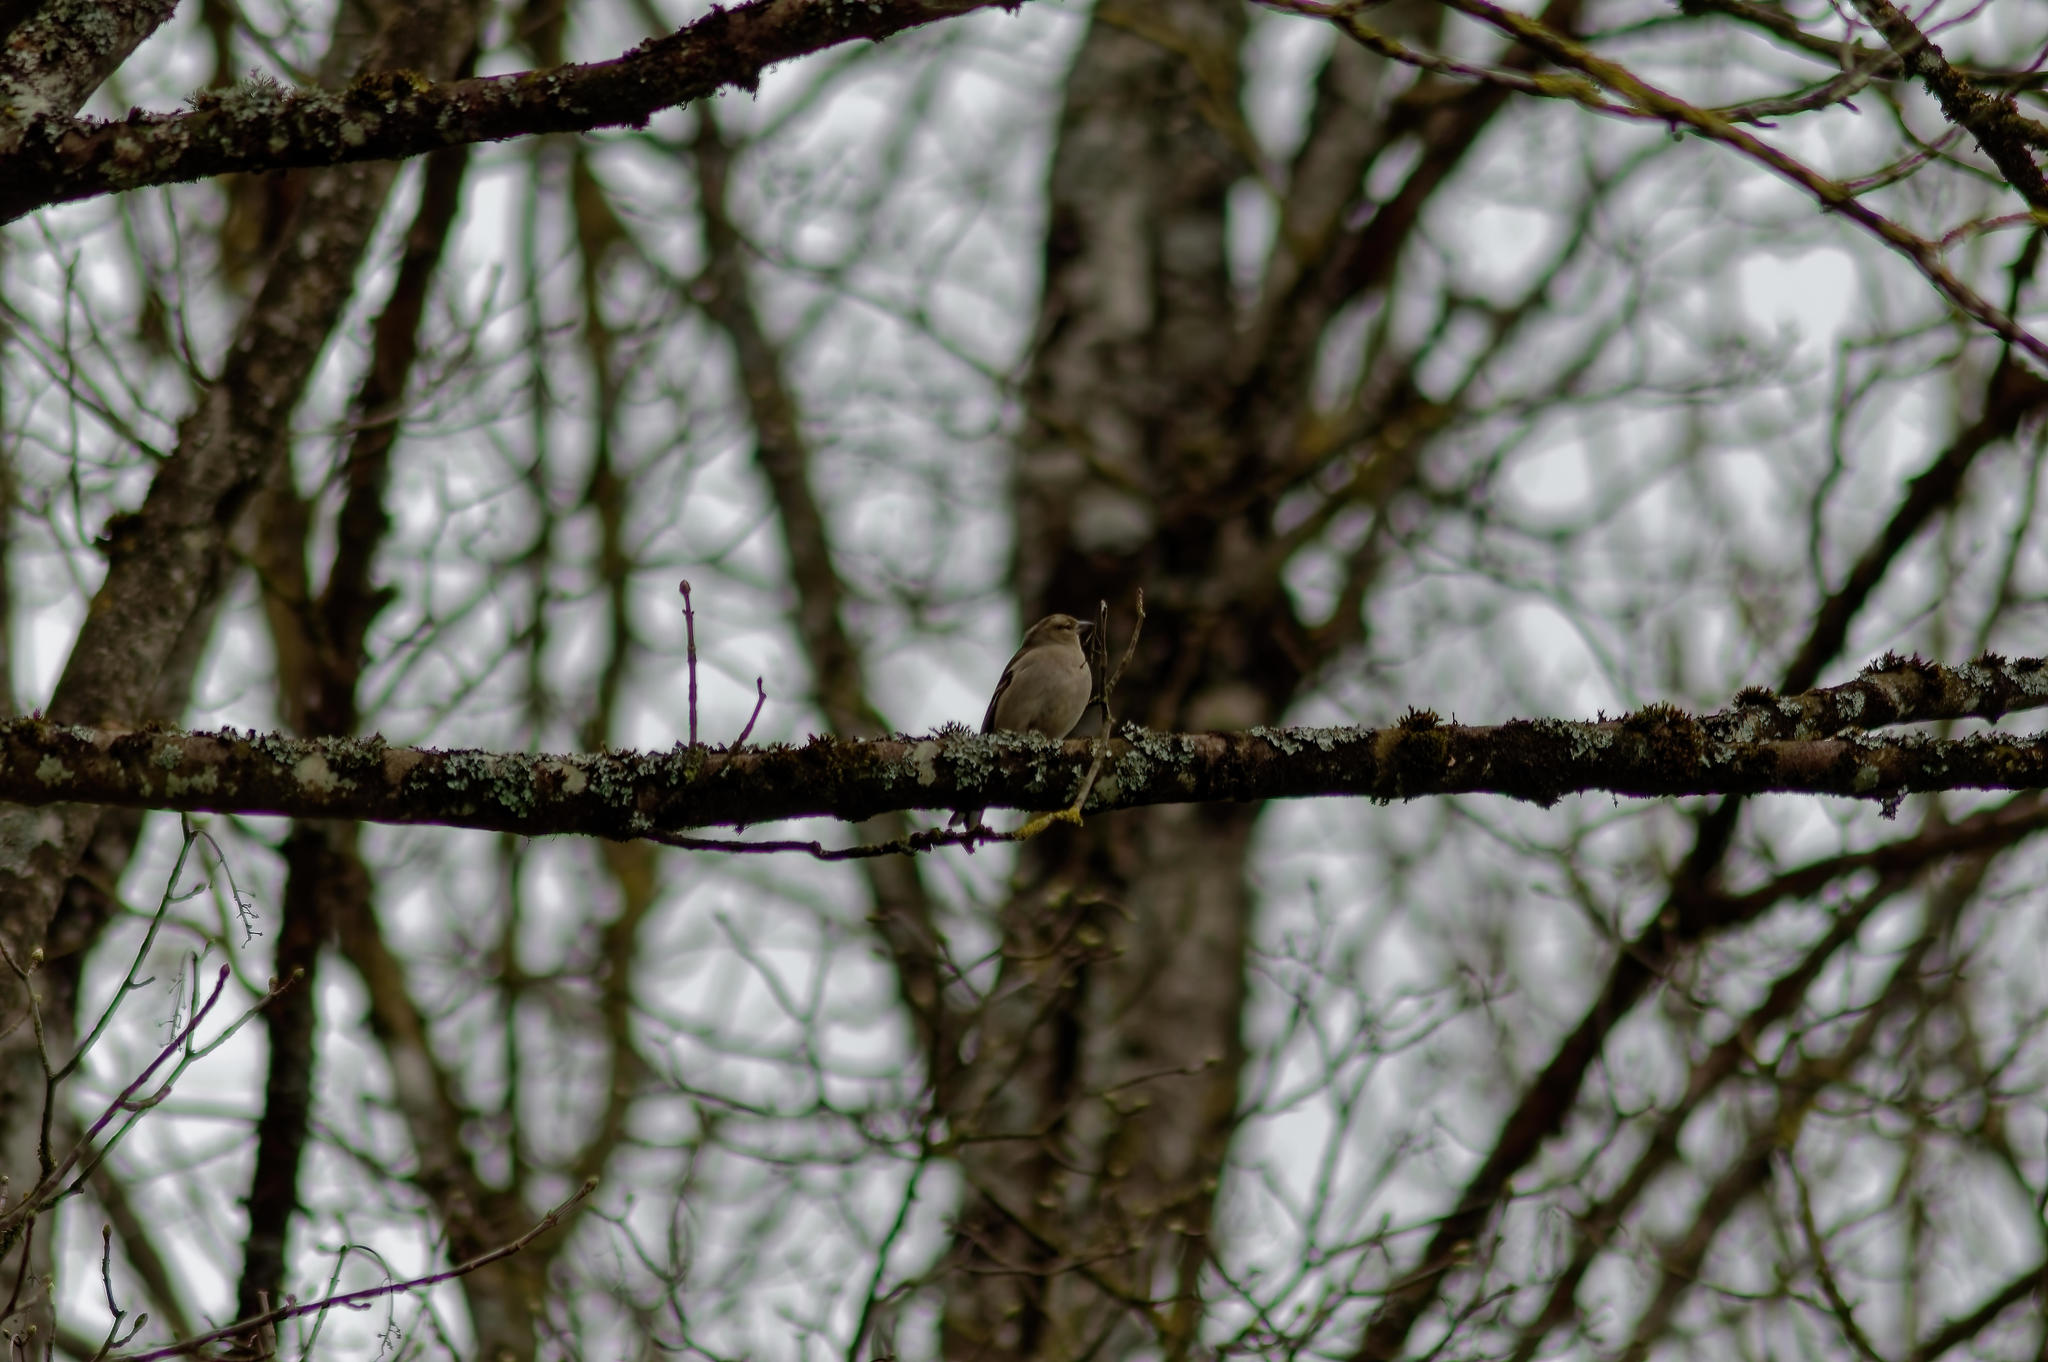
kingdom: Animalia
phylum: Chordata
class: Aves
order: Passeriformes
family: Fringillidae
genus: Fringilla
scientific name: Fringilla coelebs
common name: Common chaffinch
